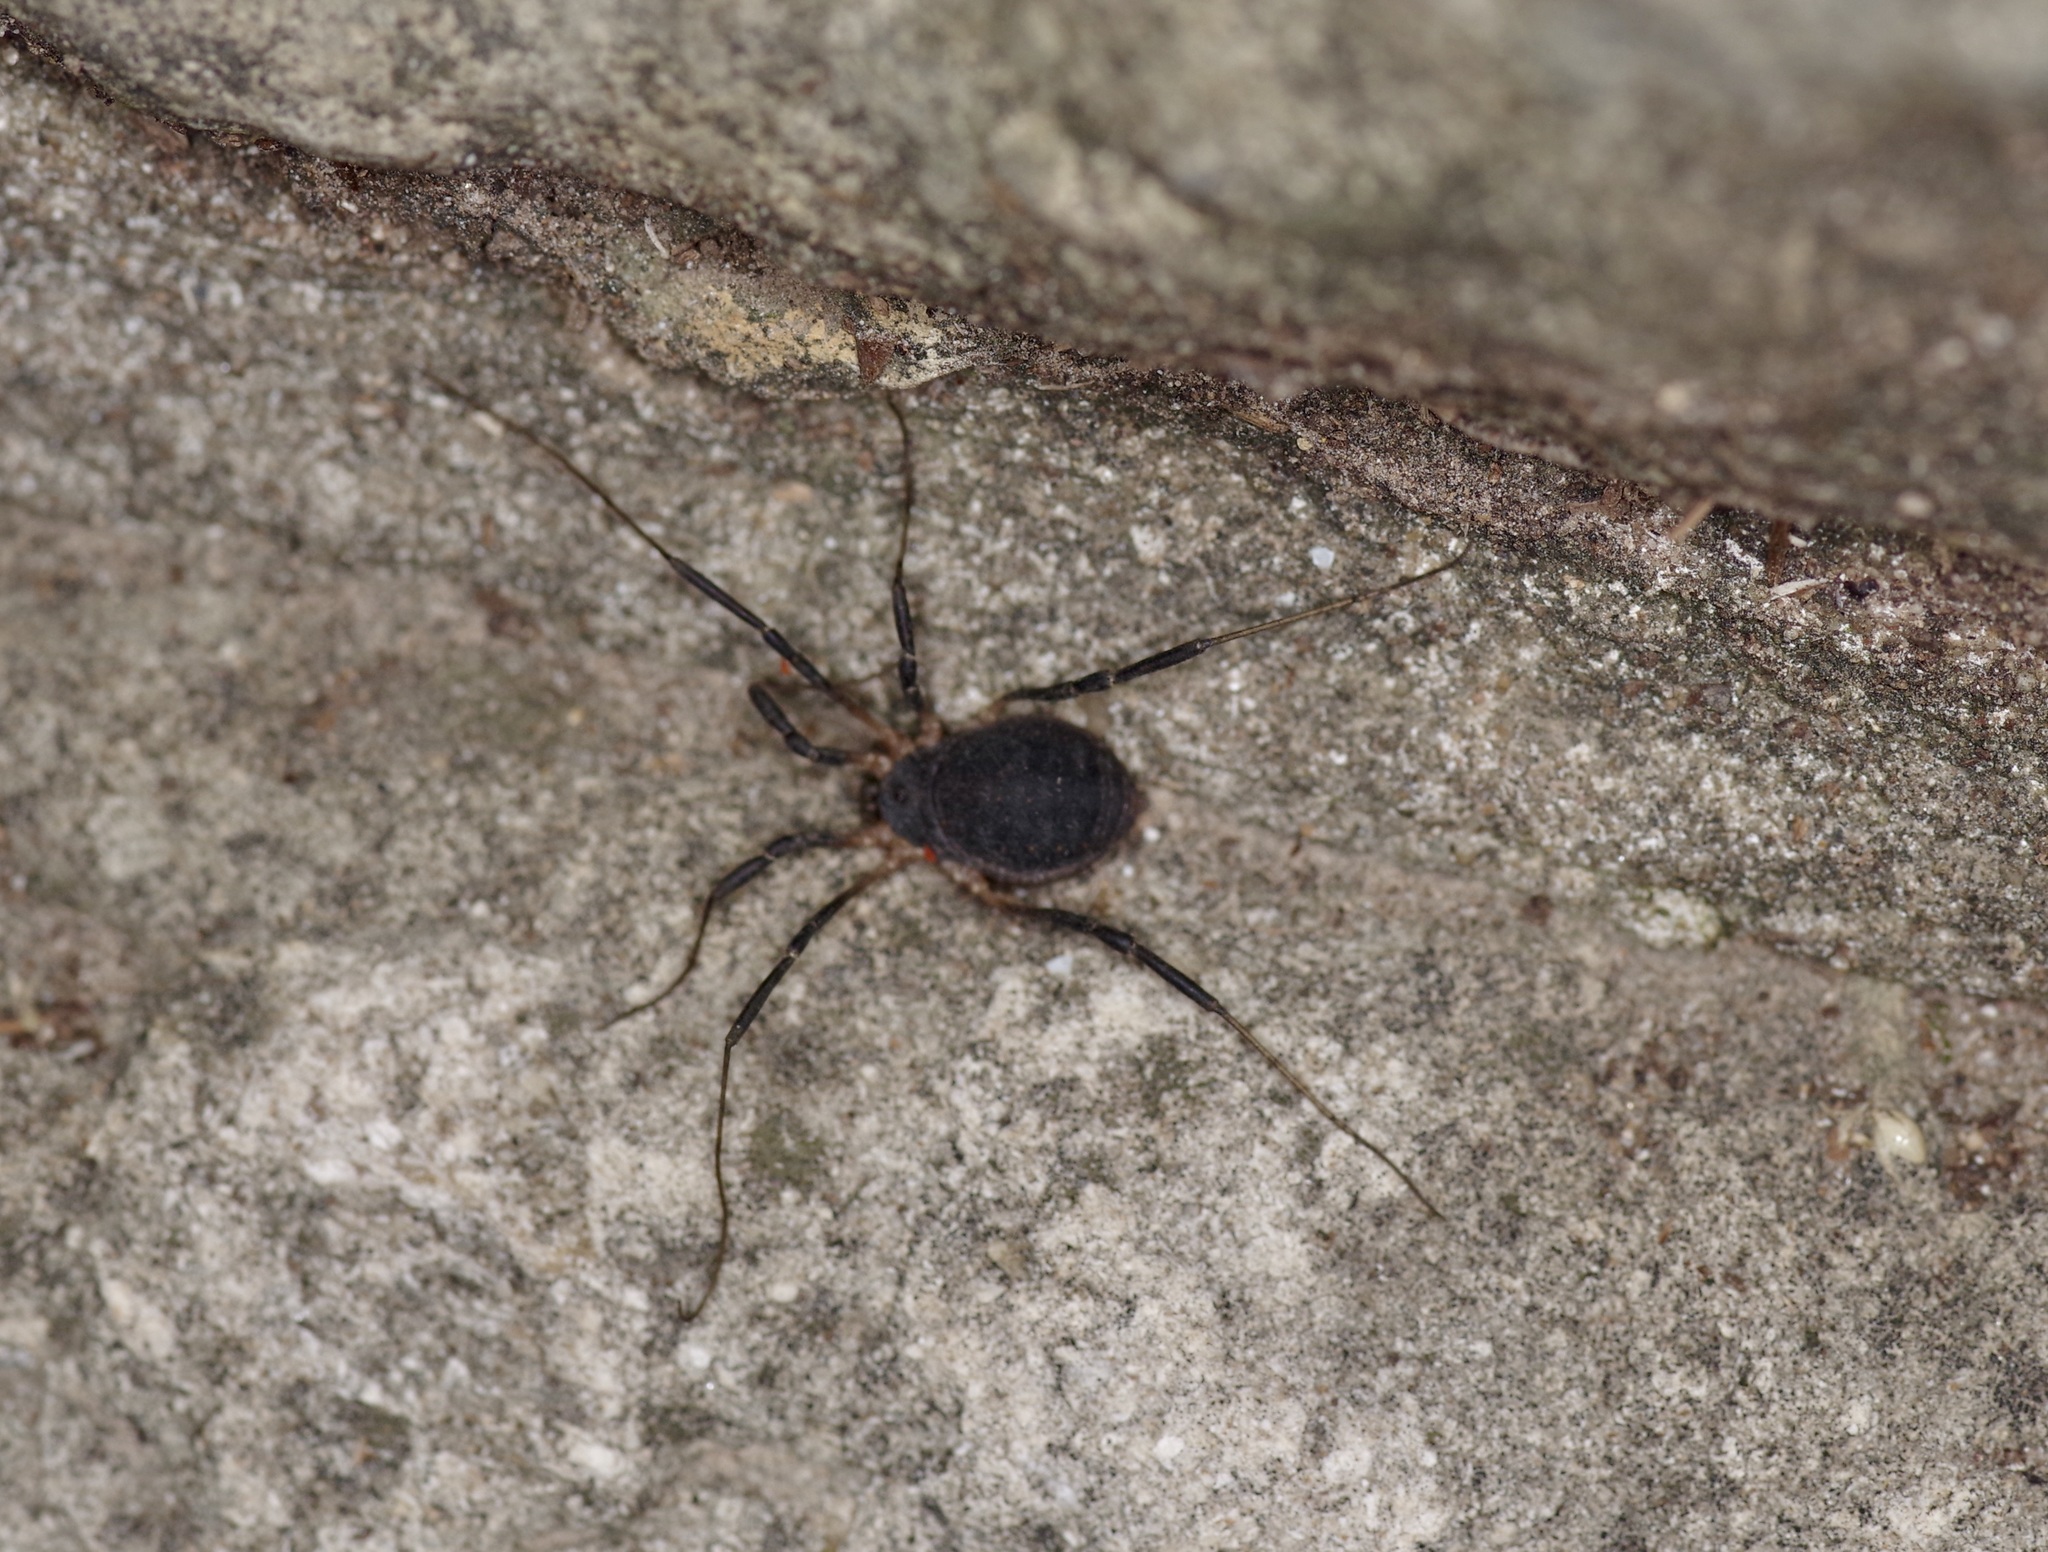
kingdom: Animalia
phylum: Arthropoda
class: Arachnida
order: Opiliones
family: Sclerosomatidae
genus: Eumesosoma
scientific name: Eumesosoma roeweri
